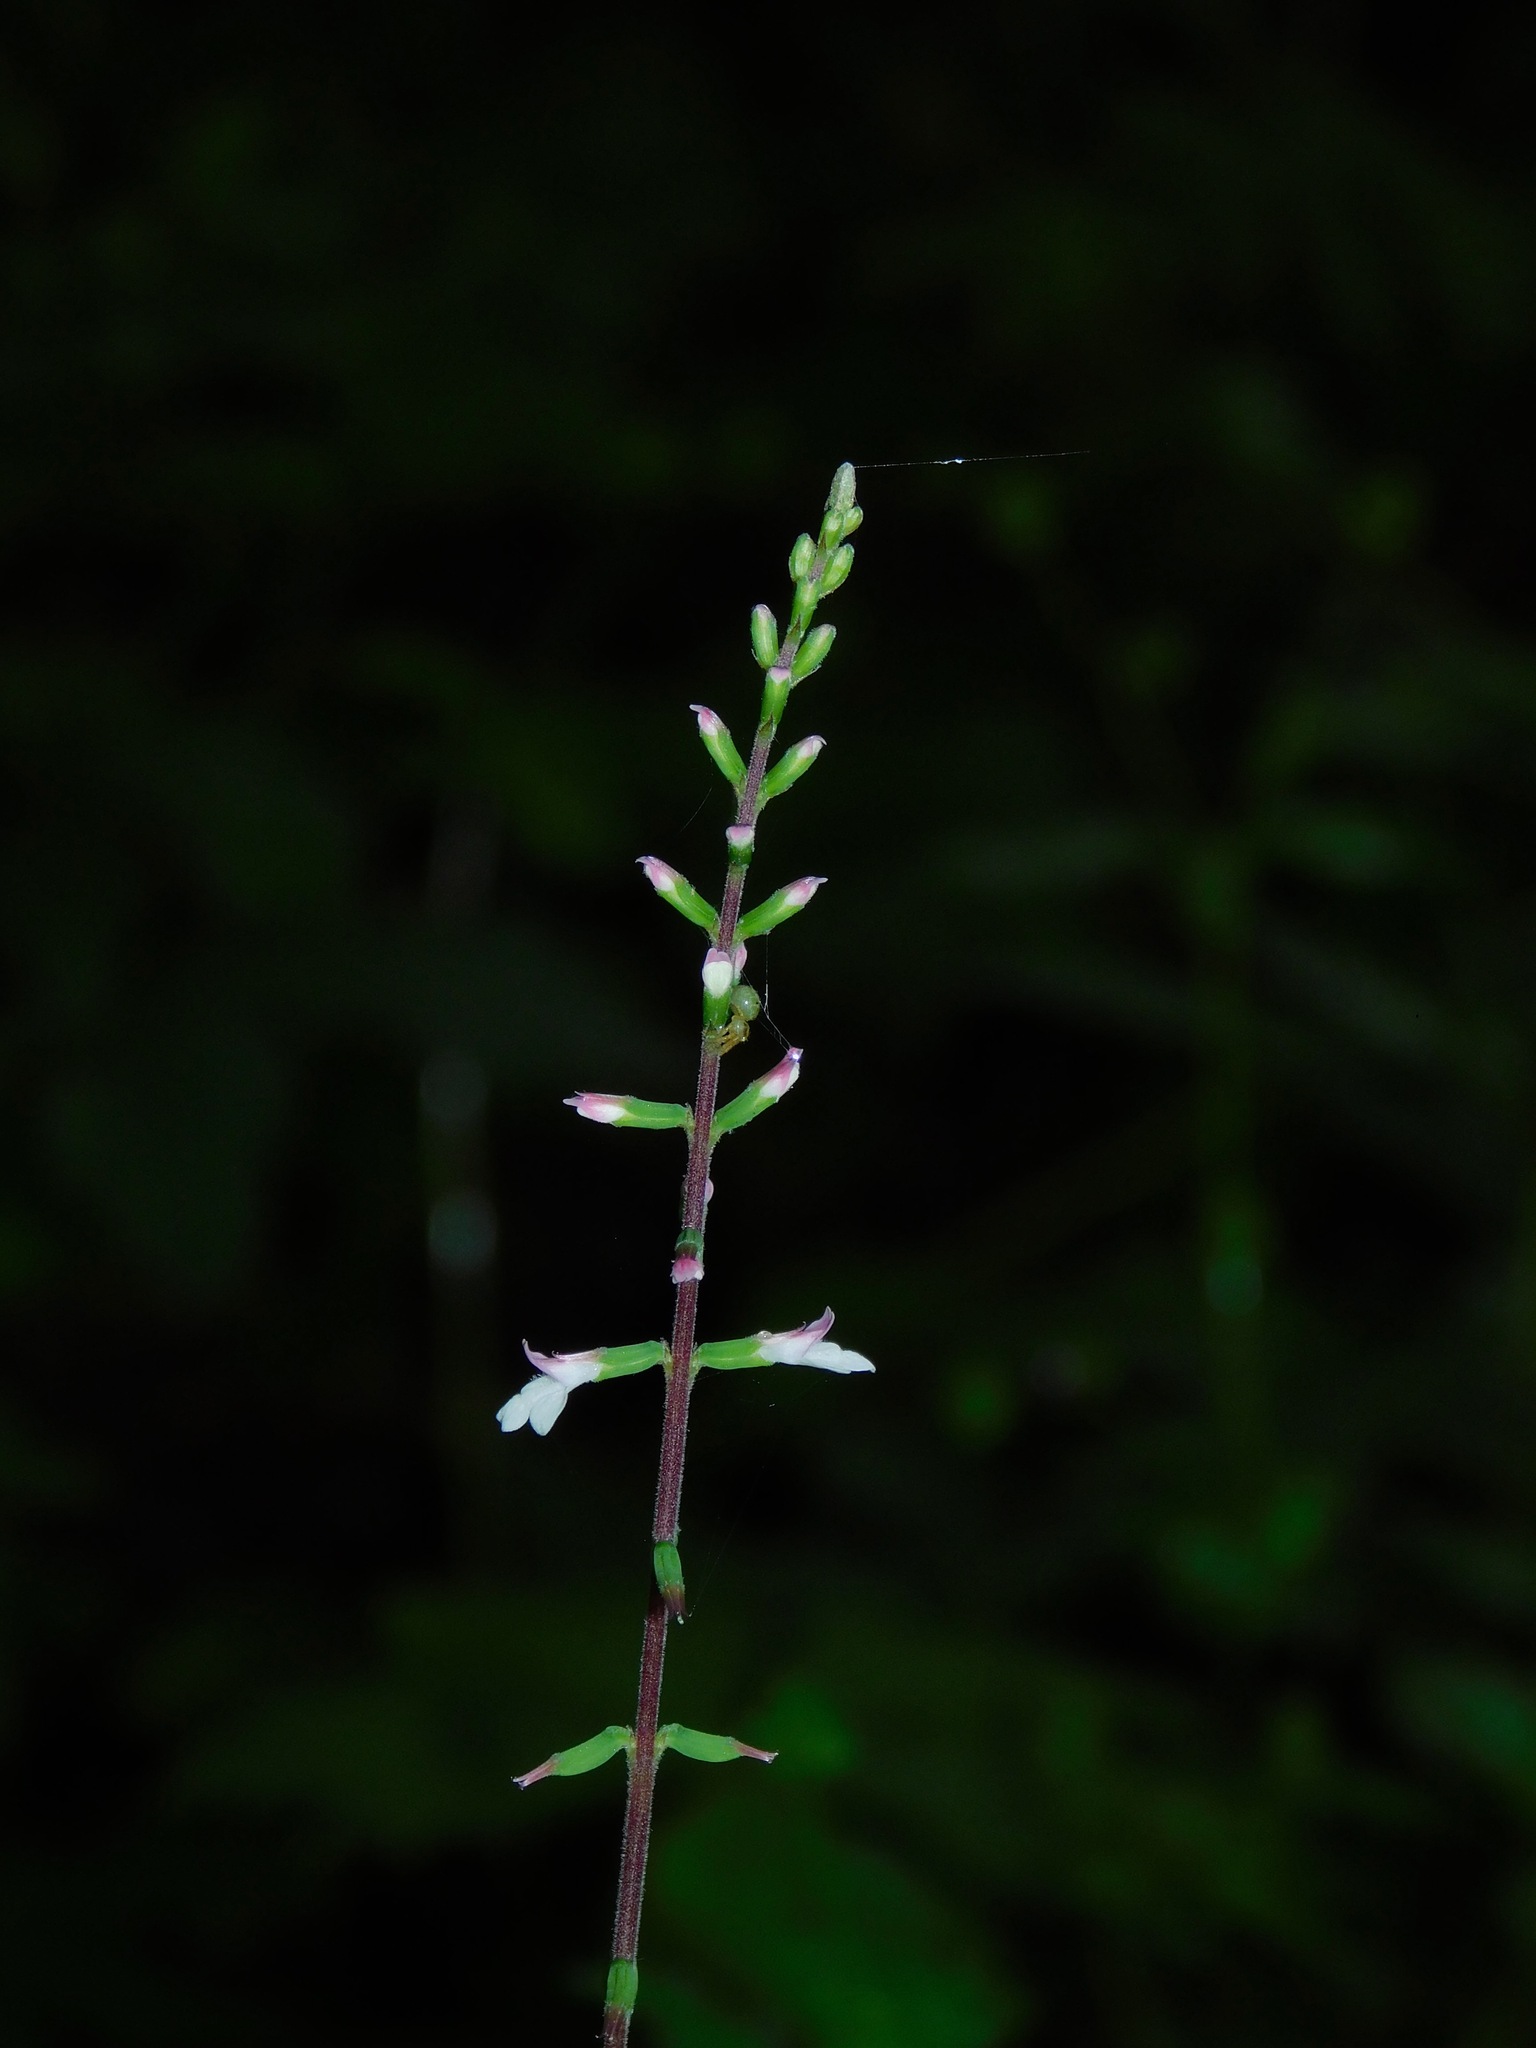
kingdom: Plantae
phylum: Tracheophyta
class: Magnoliopsida
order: Lamiales
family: Phrymaceae
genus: Phryma
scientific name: Phryma leptostachya
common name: American lopseed
